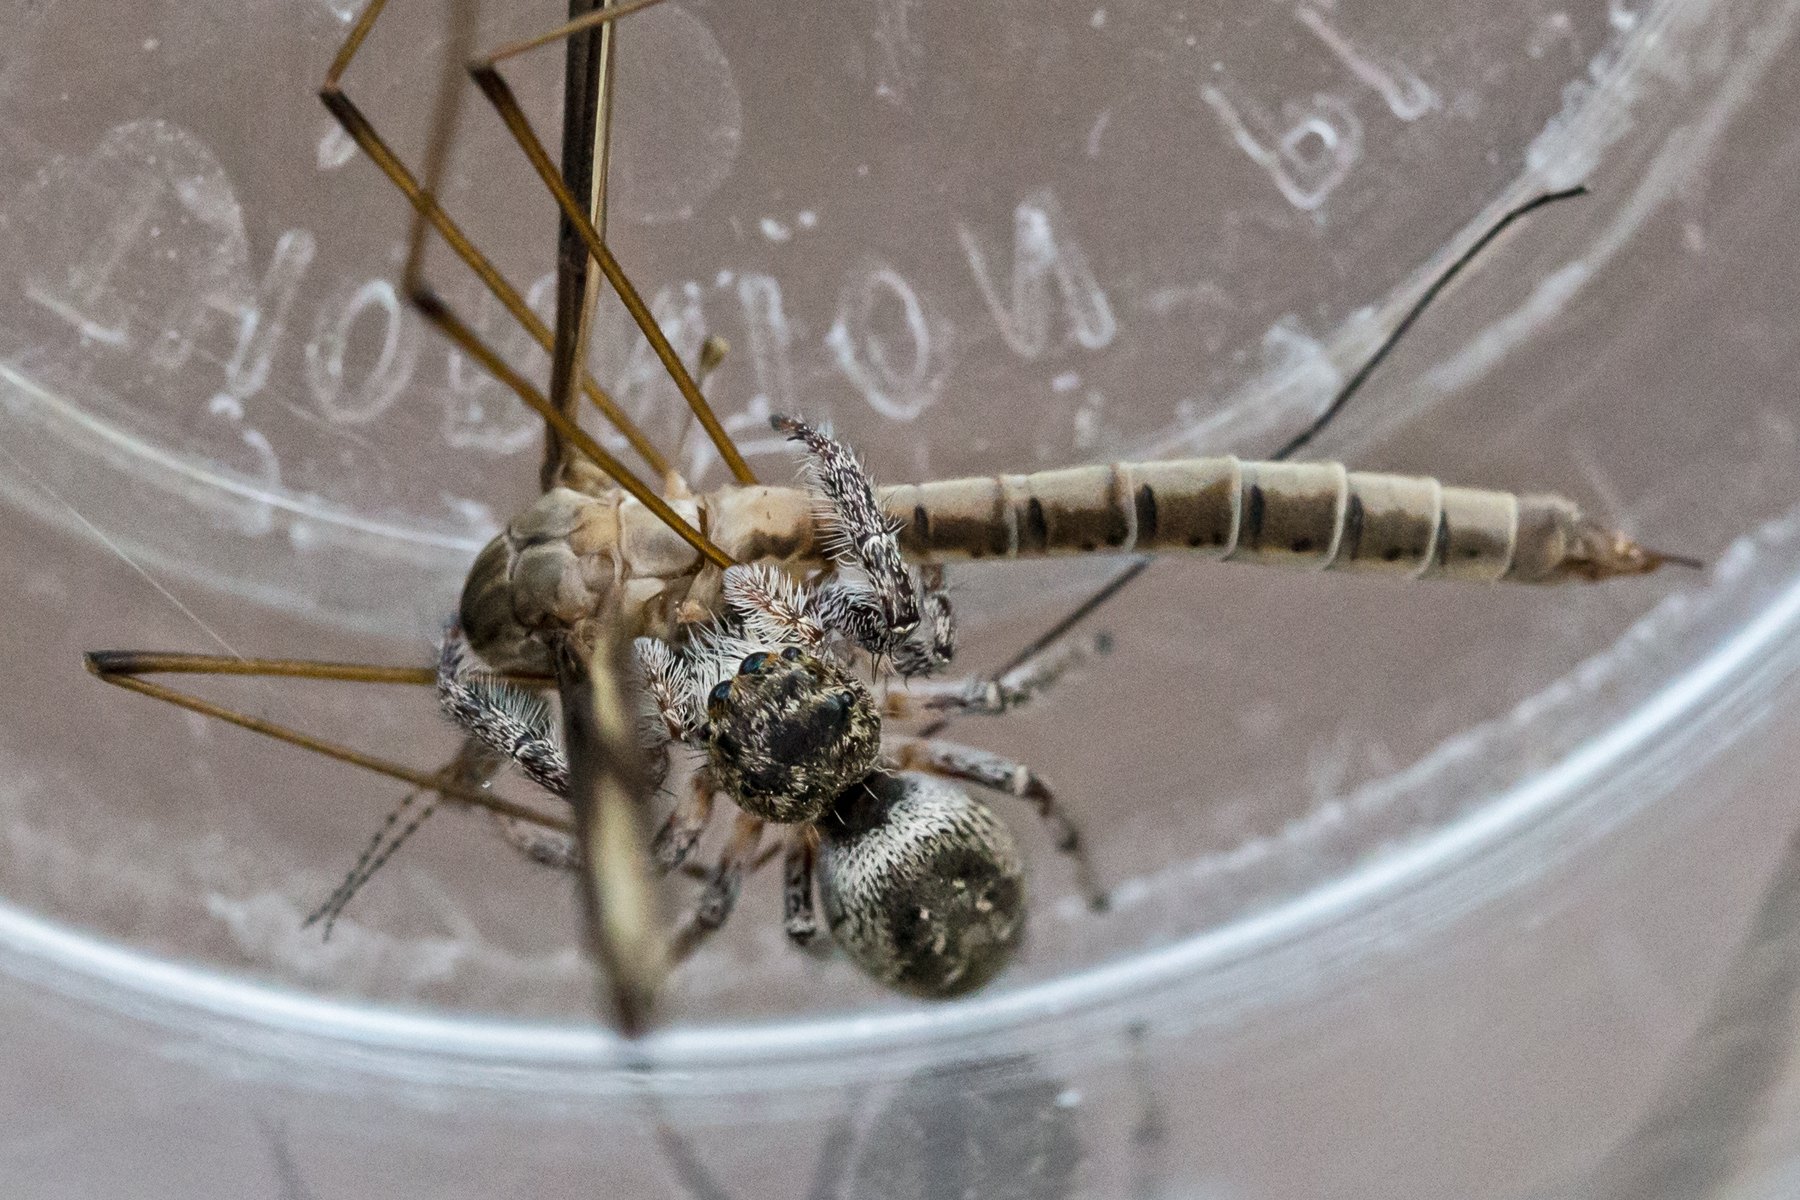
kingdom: Animalia
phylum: Arthropoda
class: Arachnida
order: Araneae
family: Salticidae
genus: Eris
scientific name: Eris militaris
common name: Bronze jumper
